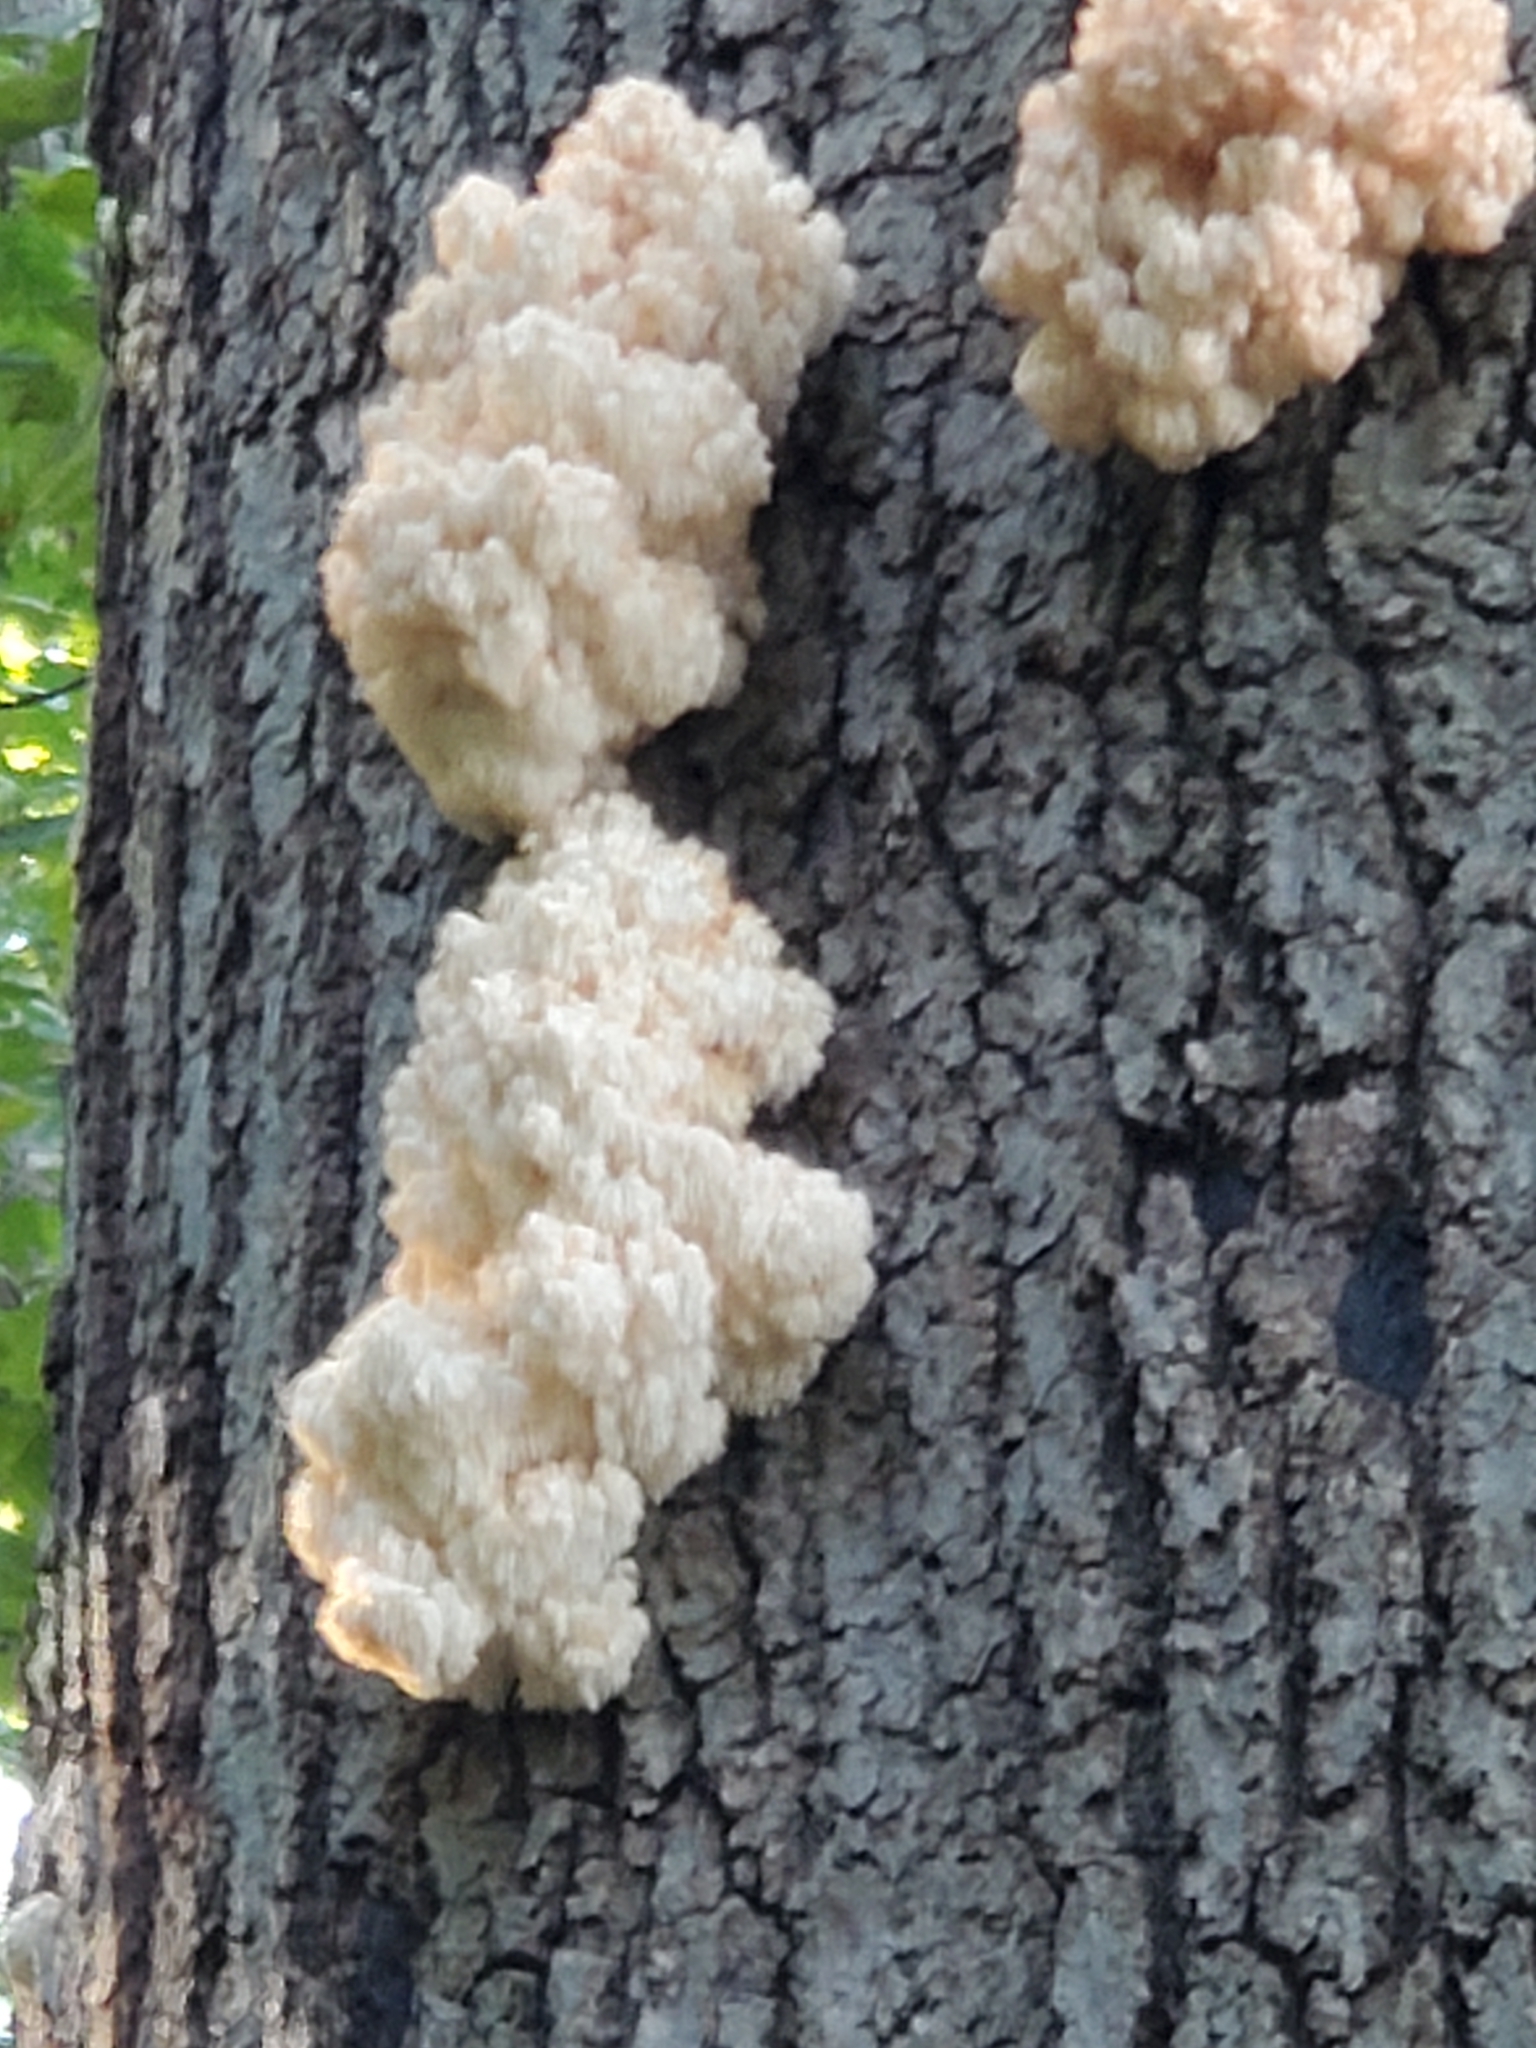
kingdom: Fungi
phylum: Basidiomycota
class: Agaricomycetes
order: Russulales
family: Hericiaceae
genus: Hericium
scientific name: Hericium americanum
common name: Bear's head tooth
